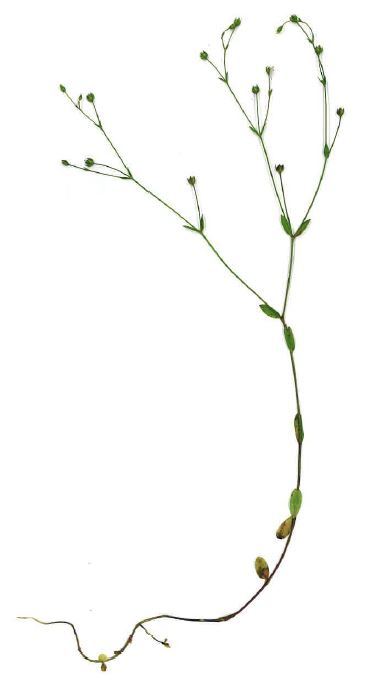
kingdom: Plantae
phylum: Tracheophyta
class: Magnoliopsida
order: Malpighiales
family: Linaceae
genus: Linum
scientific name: Linum catharticum
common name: Fairy flax
